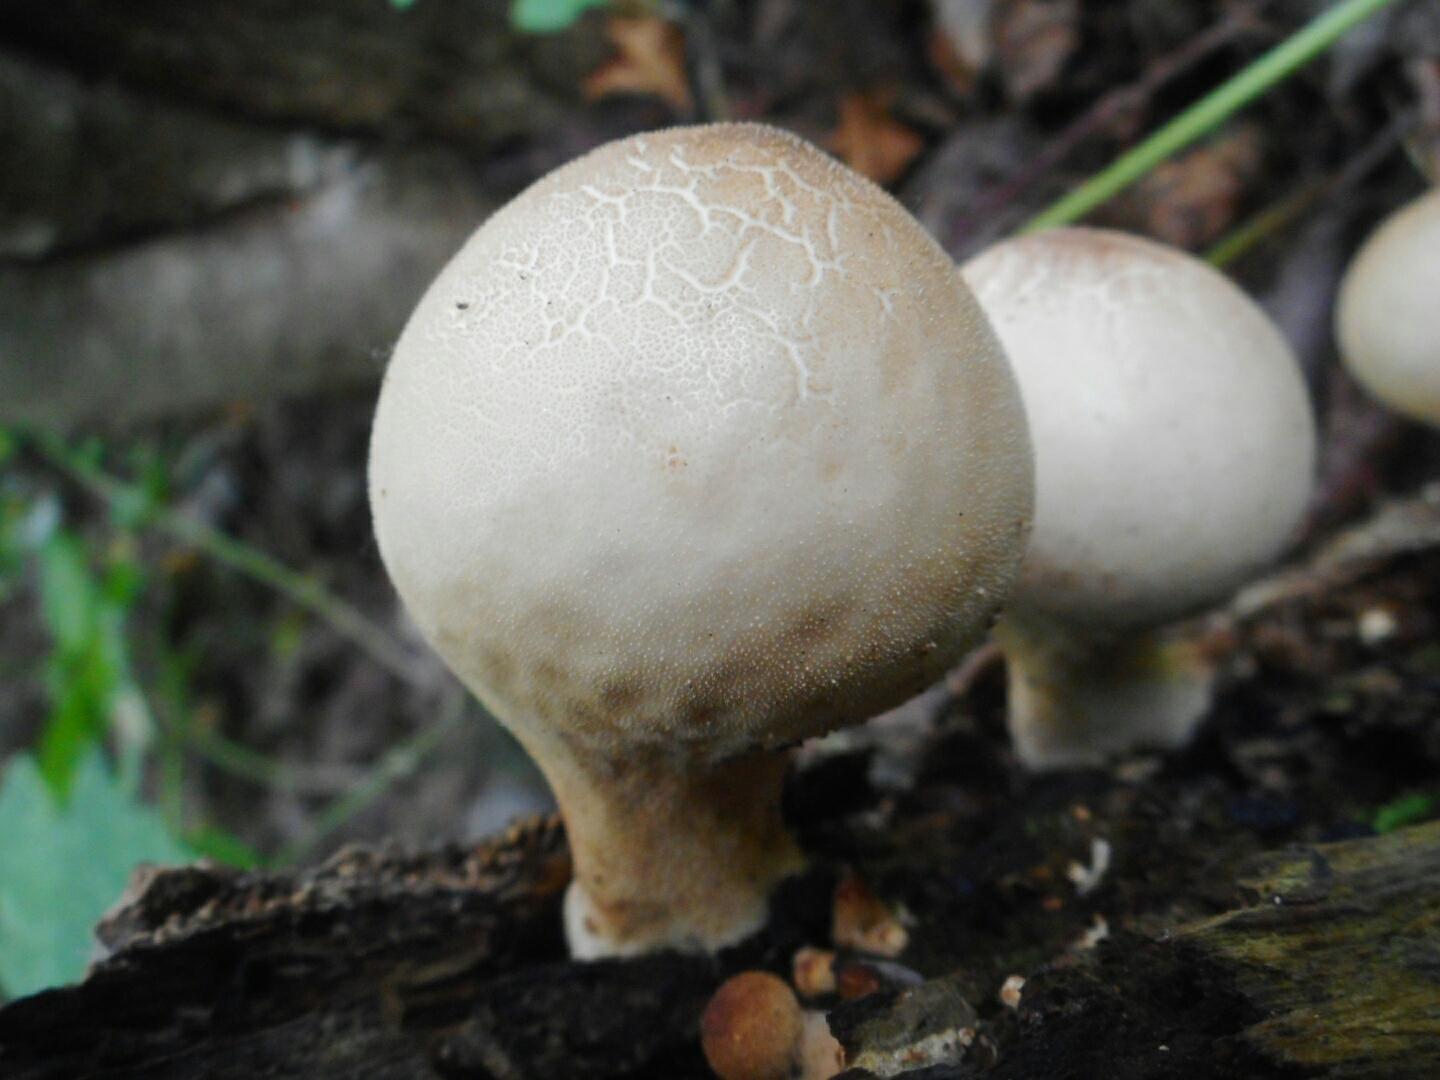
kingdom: Fungi
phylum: Basidiomycota
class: Agaricomycetes
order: Agaricales
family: Lycoperdaceae
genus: Apioperdon
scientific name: Apioperdon pyriforme
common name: Pear-shaped puffball
